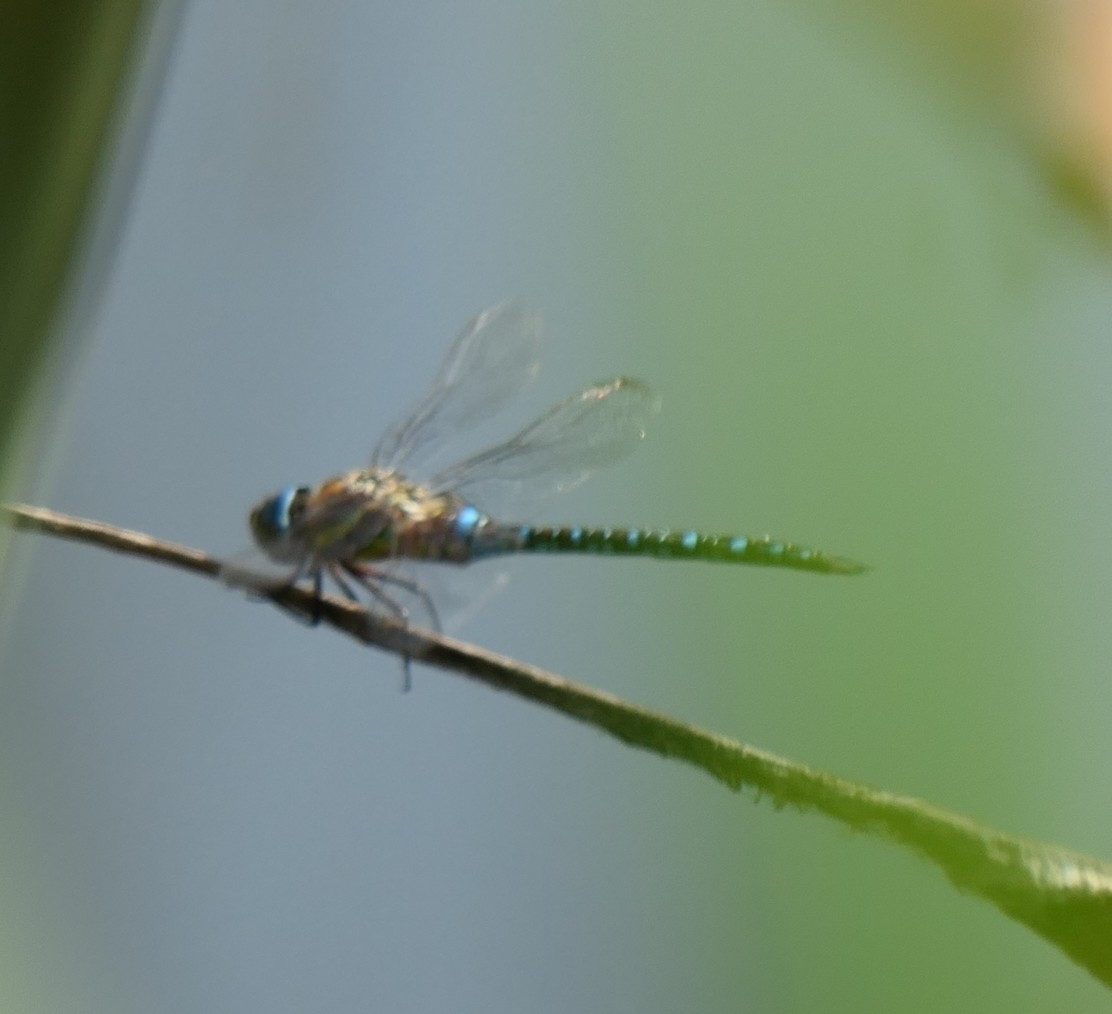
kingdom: Animalia
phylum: Arthropoda
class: Insecta
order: Odonata
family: Aeshnidae
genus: Aeshna
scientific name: Aeshna mixta
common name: Migrant hawker
